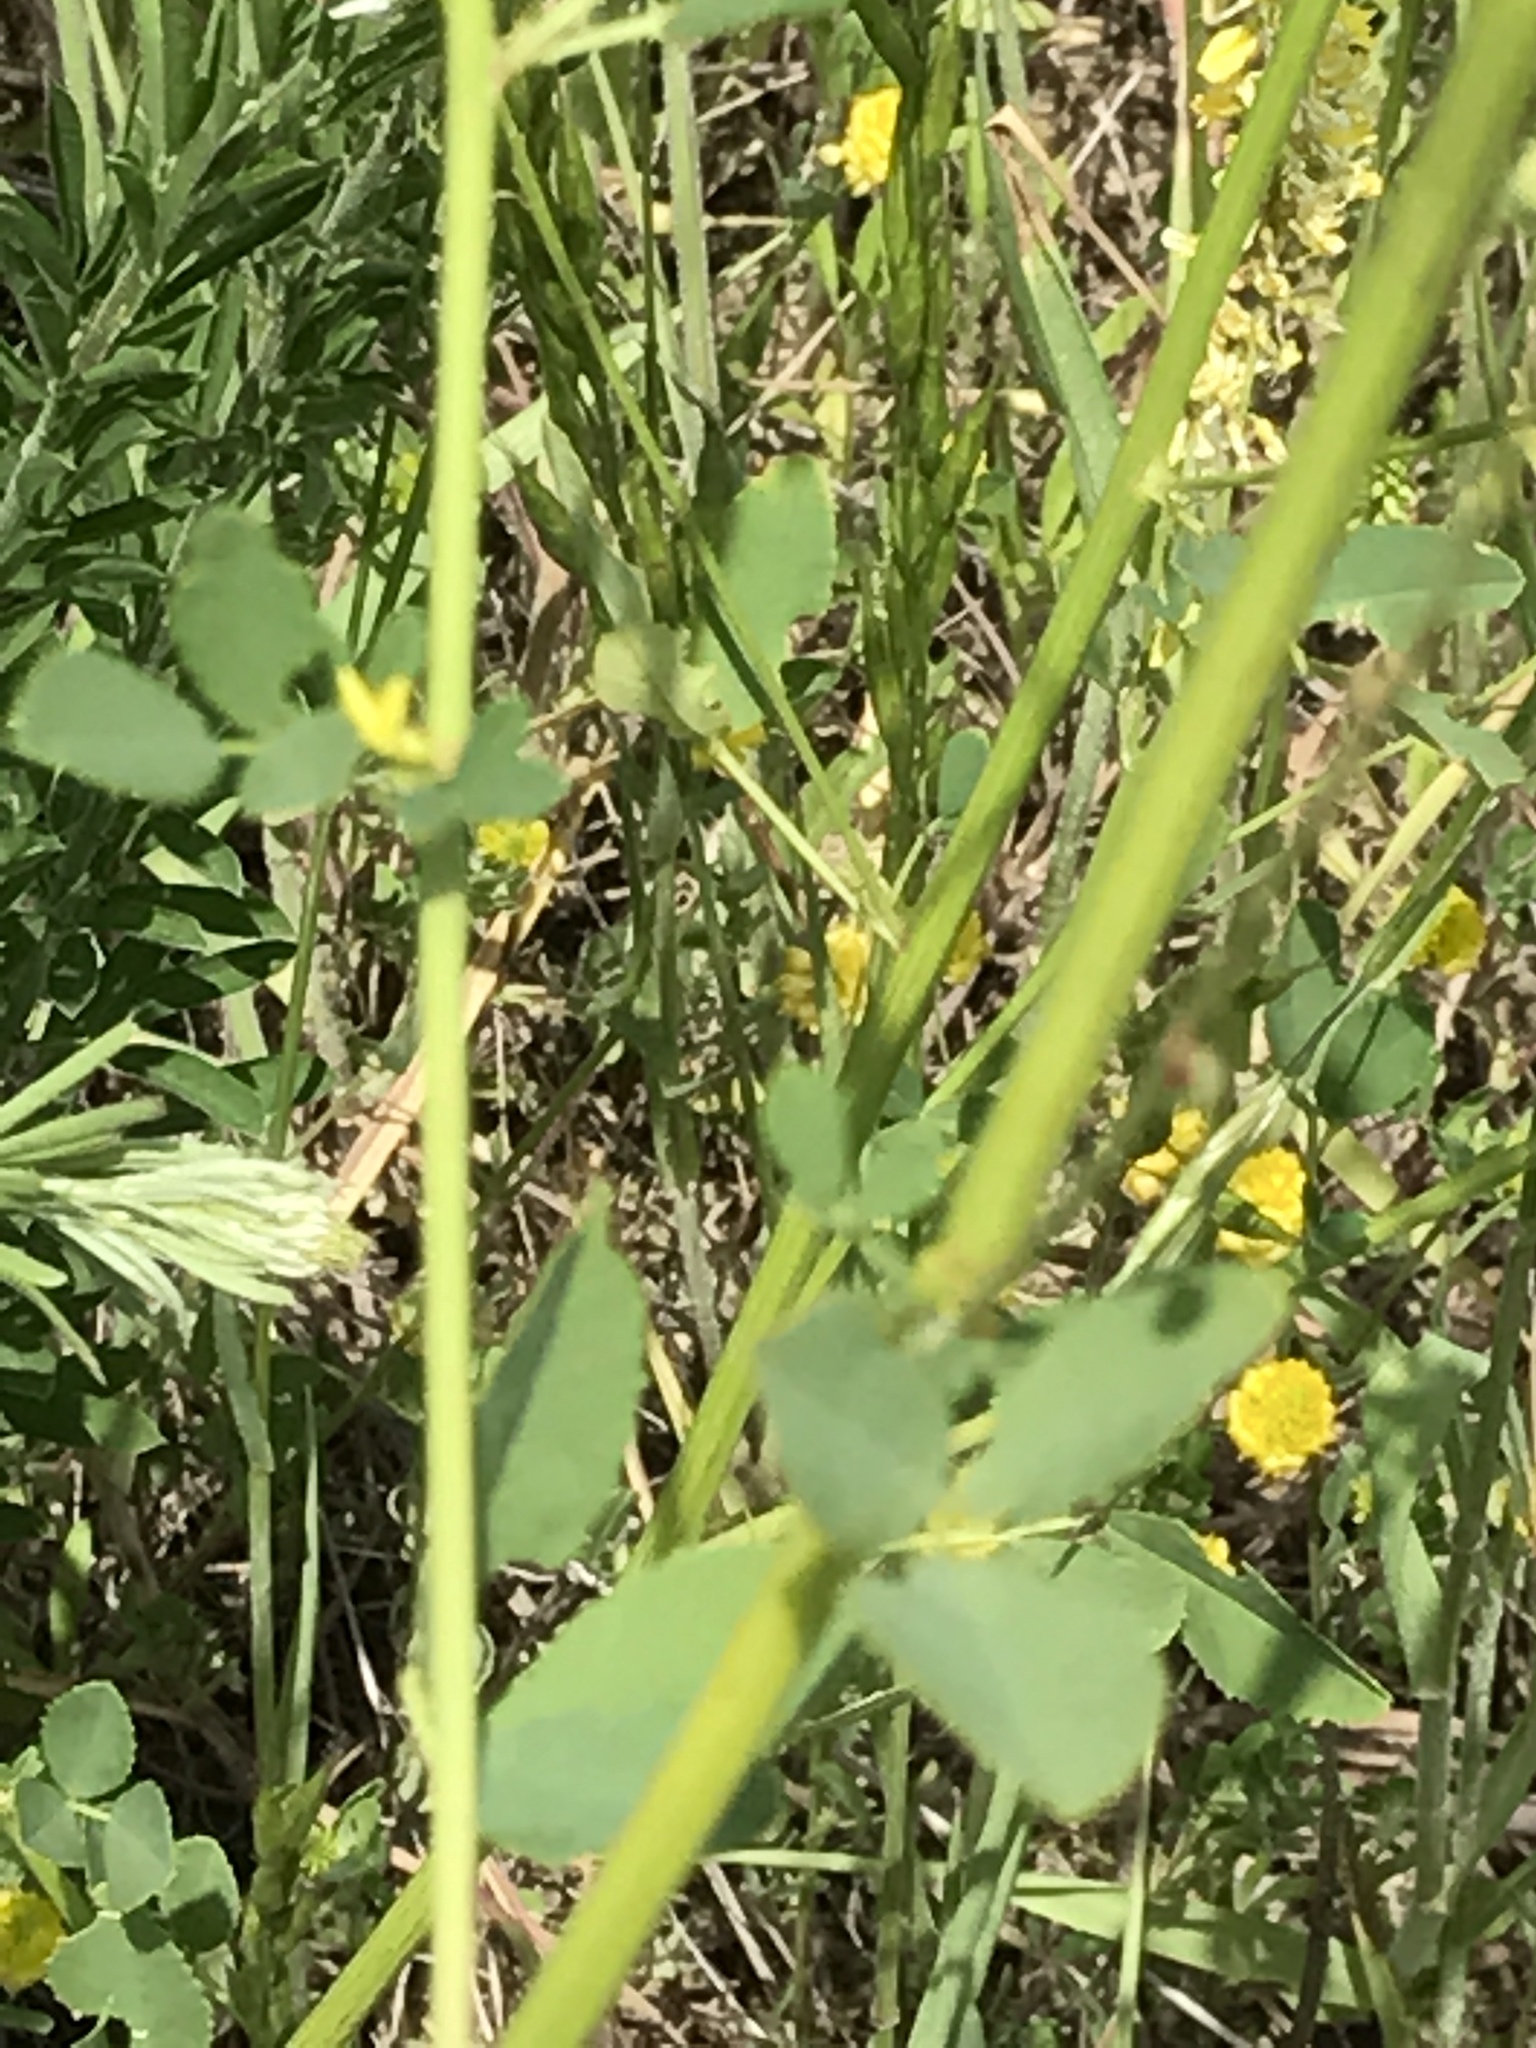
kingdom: Plantae
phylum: Tracheophyta
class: Magnoliopsida
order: Fabales
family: Fabaceae
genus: Melilotus
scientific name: Melilotus officinalis
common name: Sweetclover
